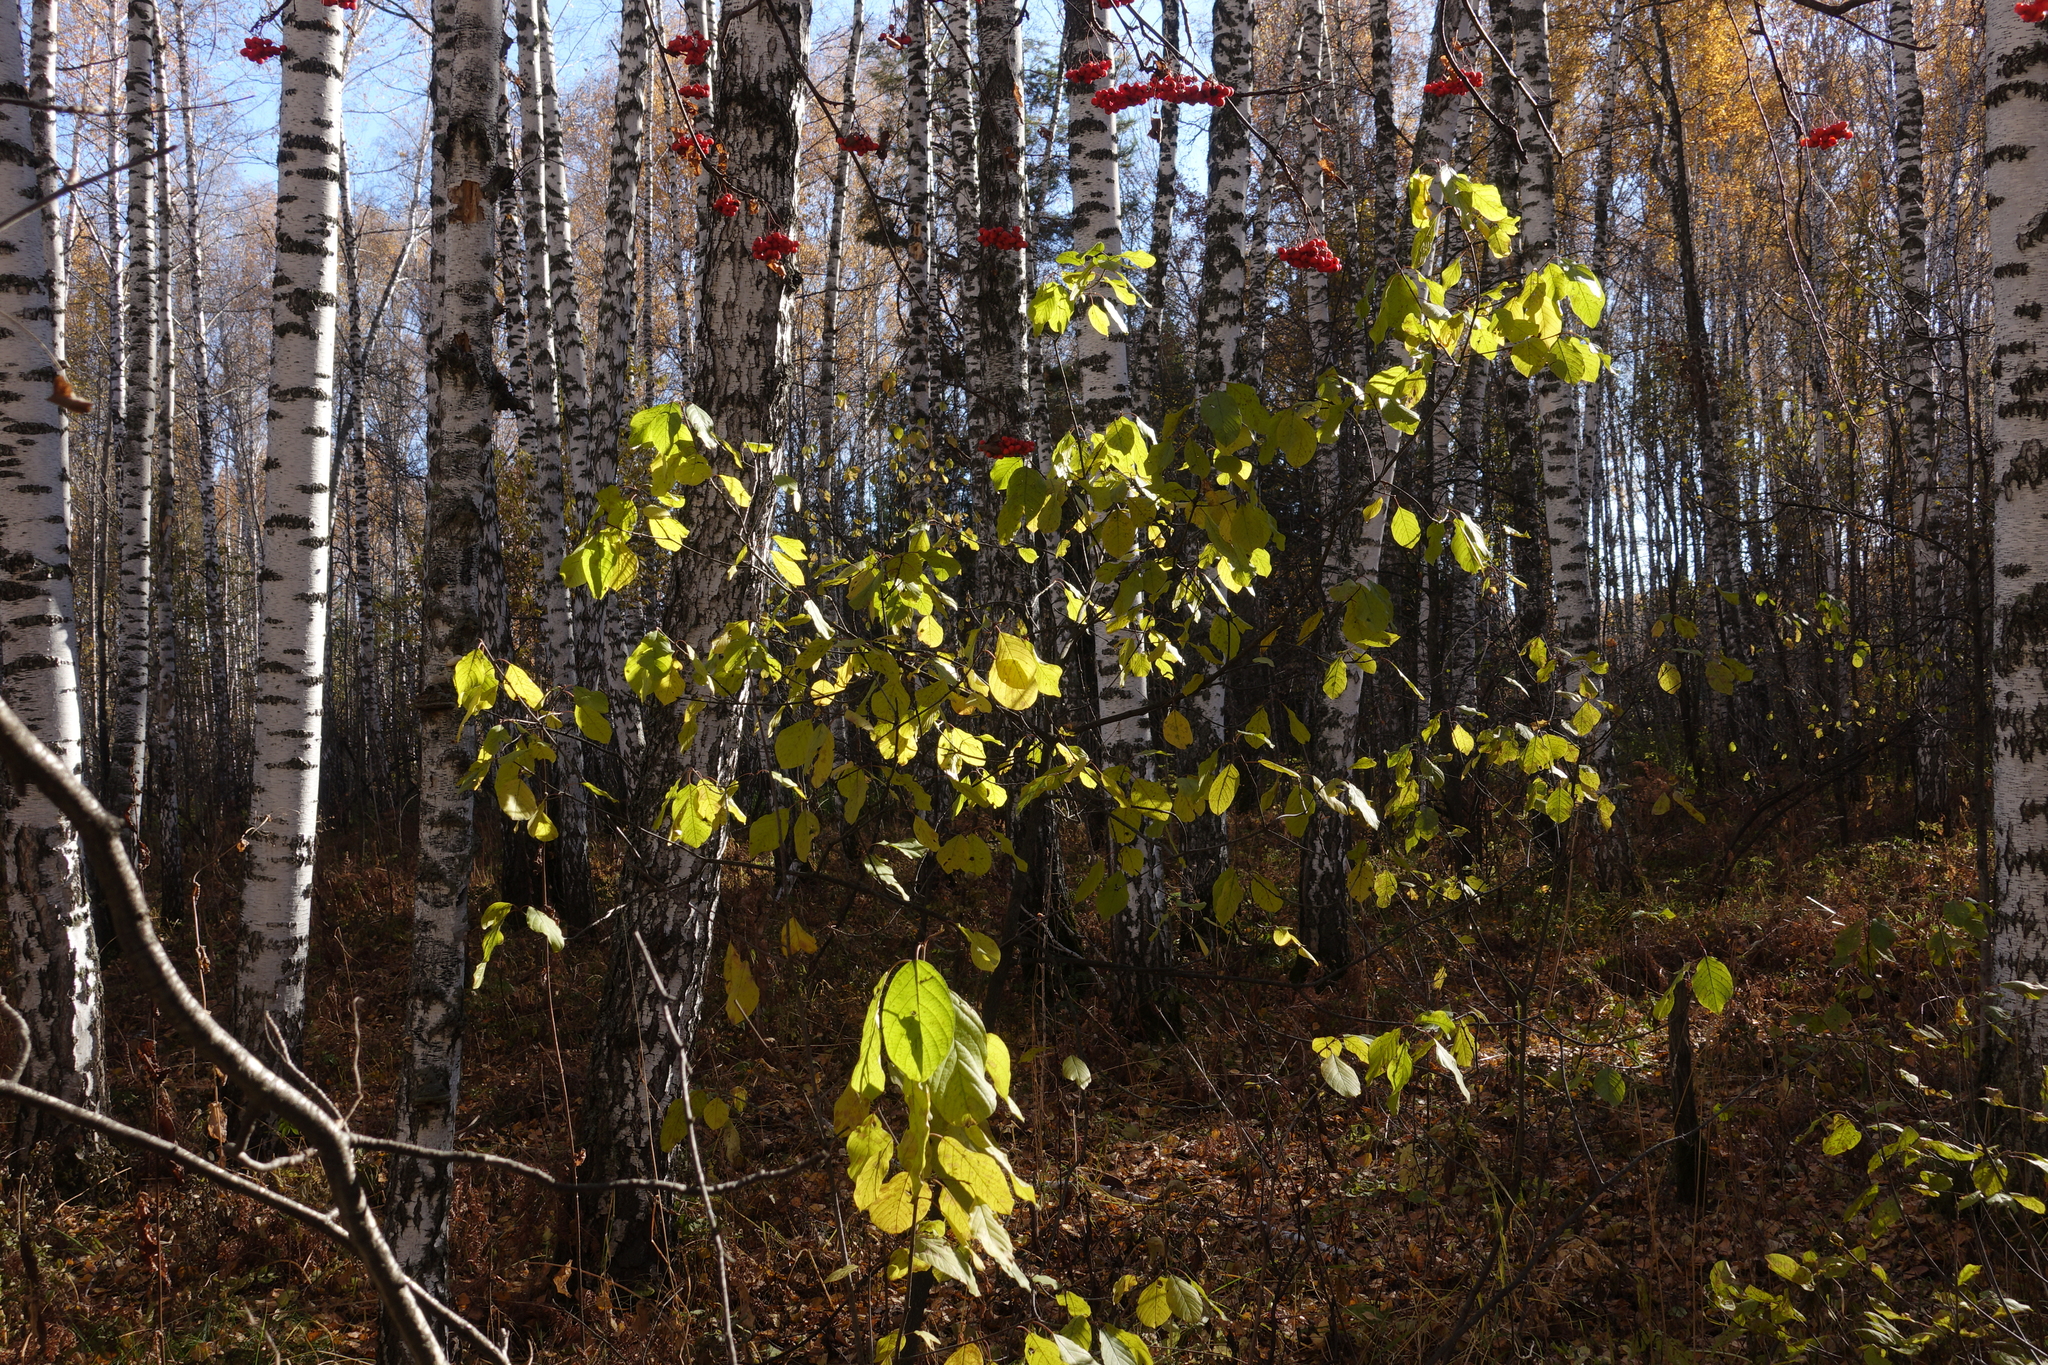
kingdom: Plantae
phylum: Tracheophyta
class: Magnoliopsida
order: Rosales
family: Rhamnaceae
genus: Frangula
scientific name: Frangula alnus
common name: Alder buckthorn
